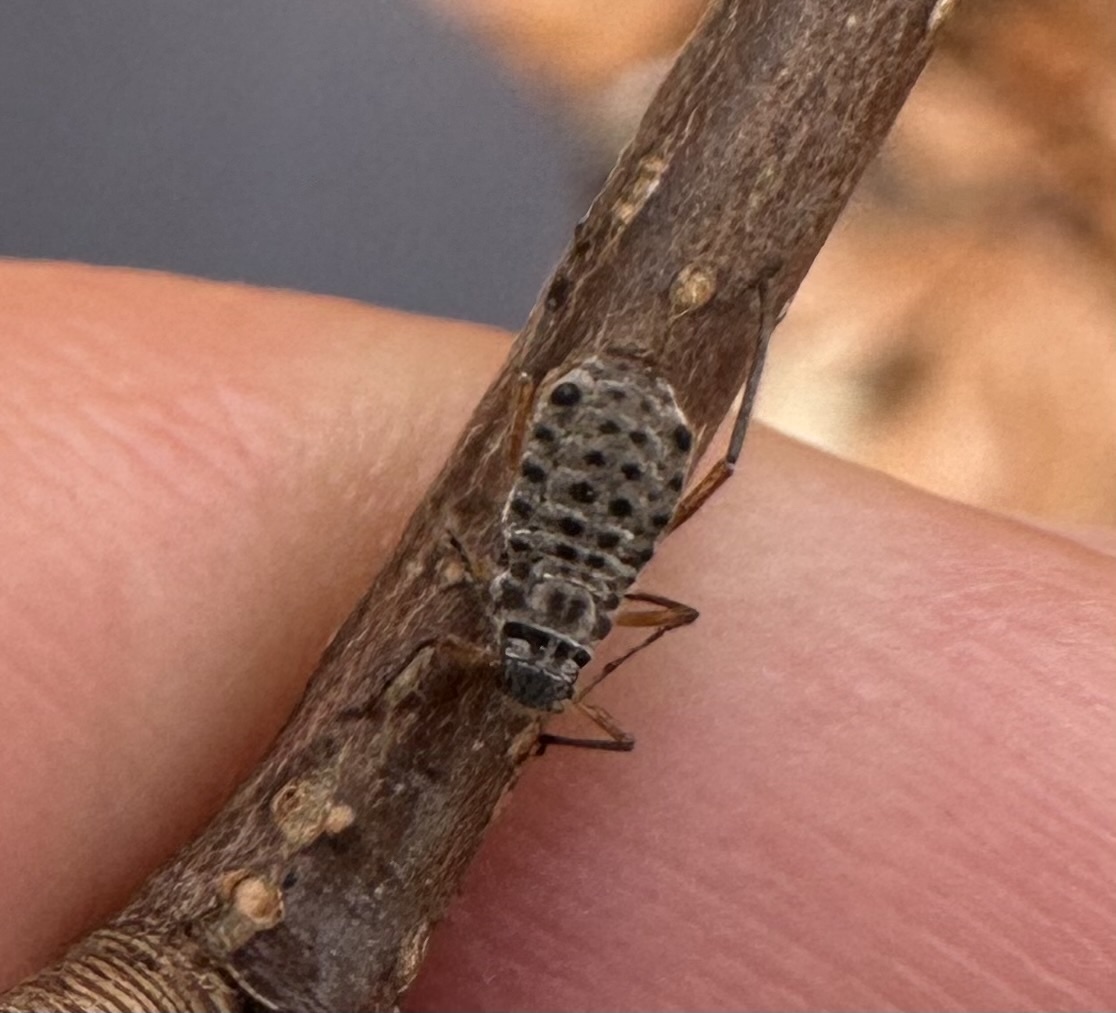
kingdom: Animalia
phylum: Arthropoda
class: Insecta
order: Hemiptera
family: Aphididae
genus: Longistigma
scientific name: Longistigma caryae
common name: Giant bark aphid
